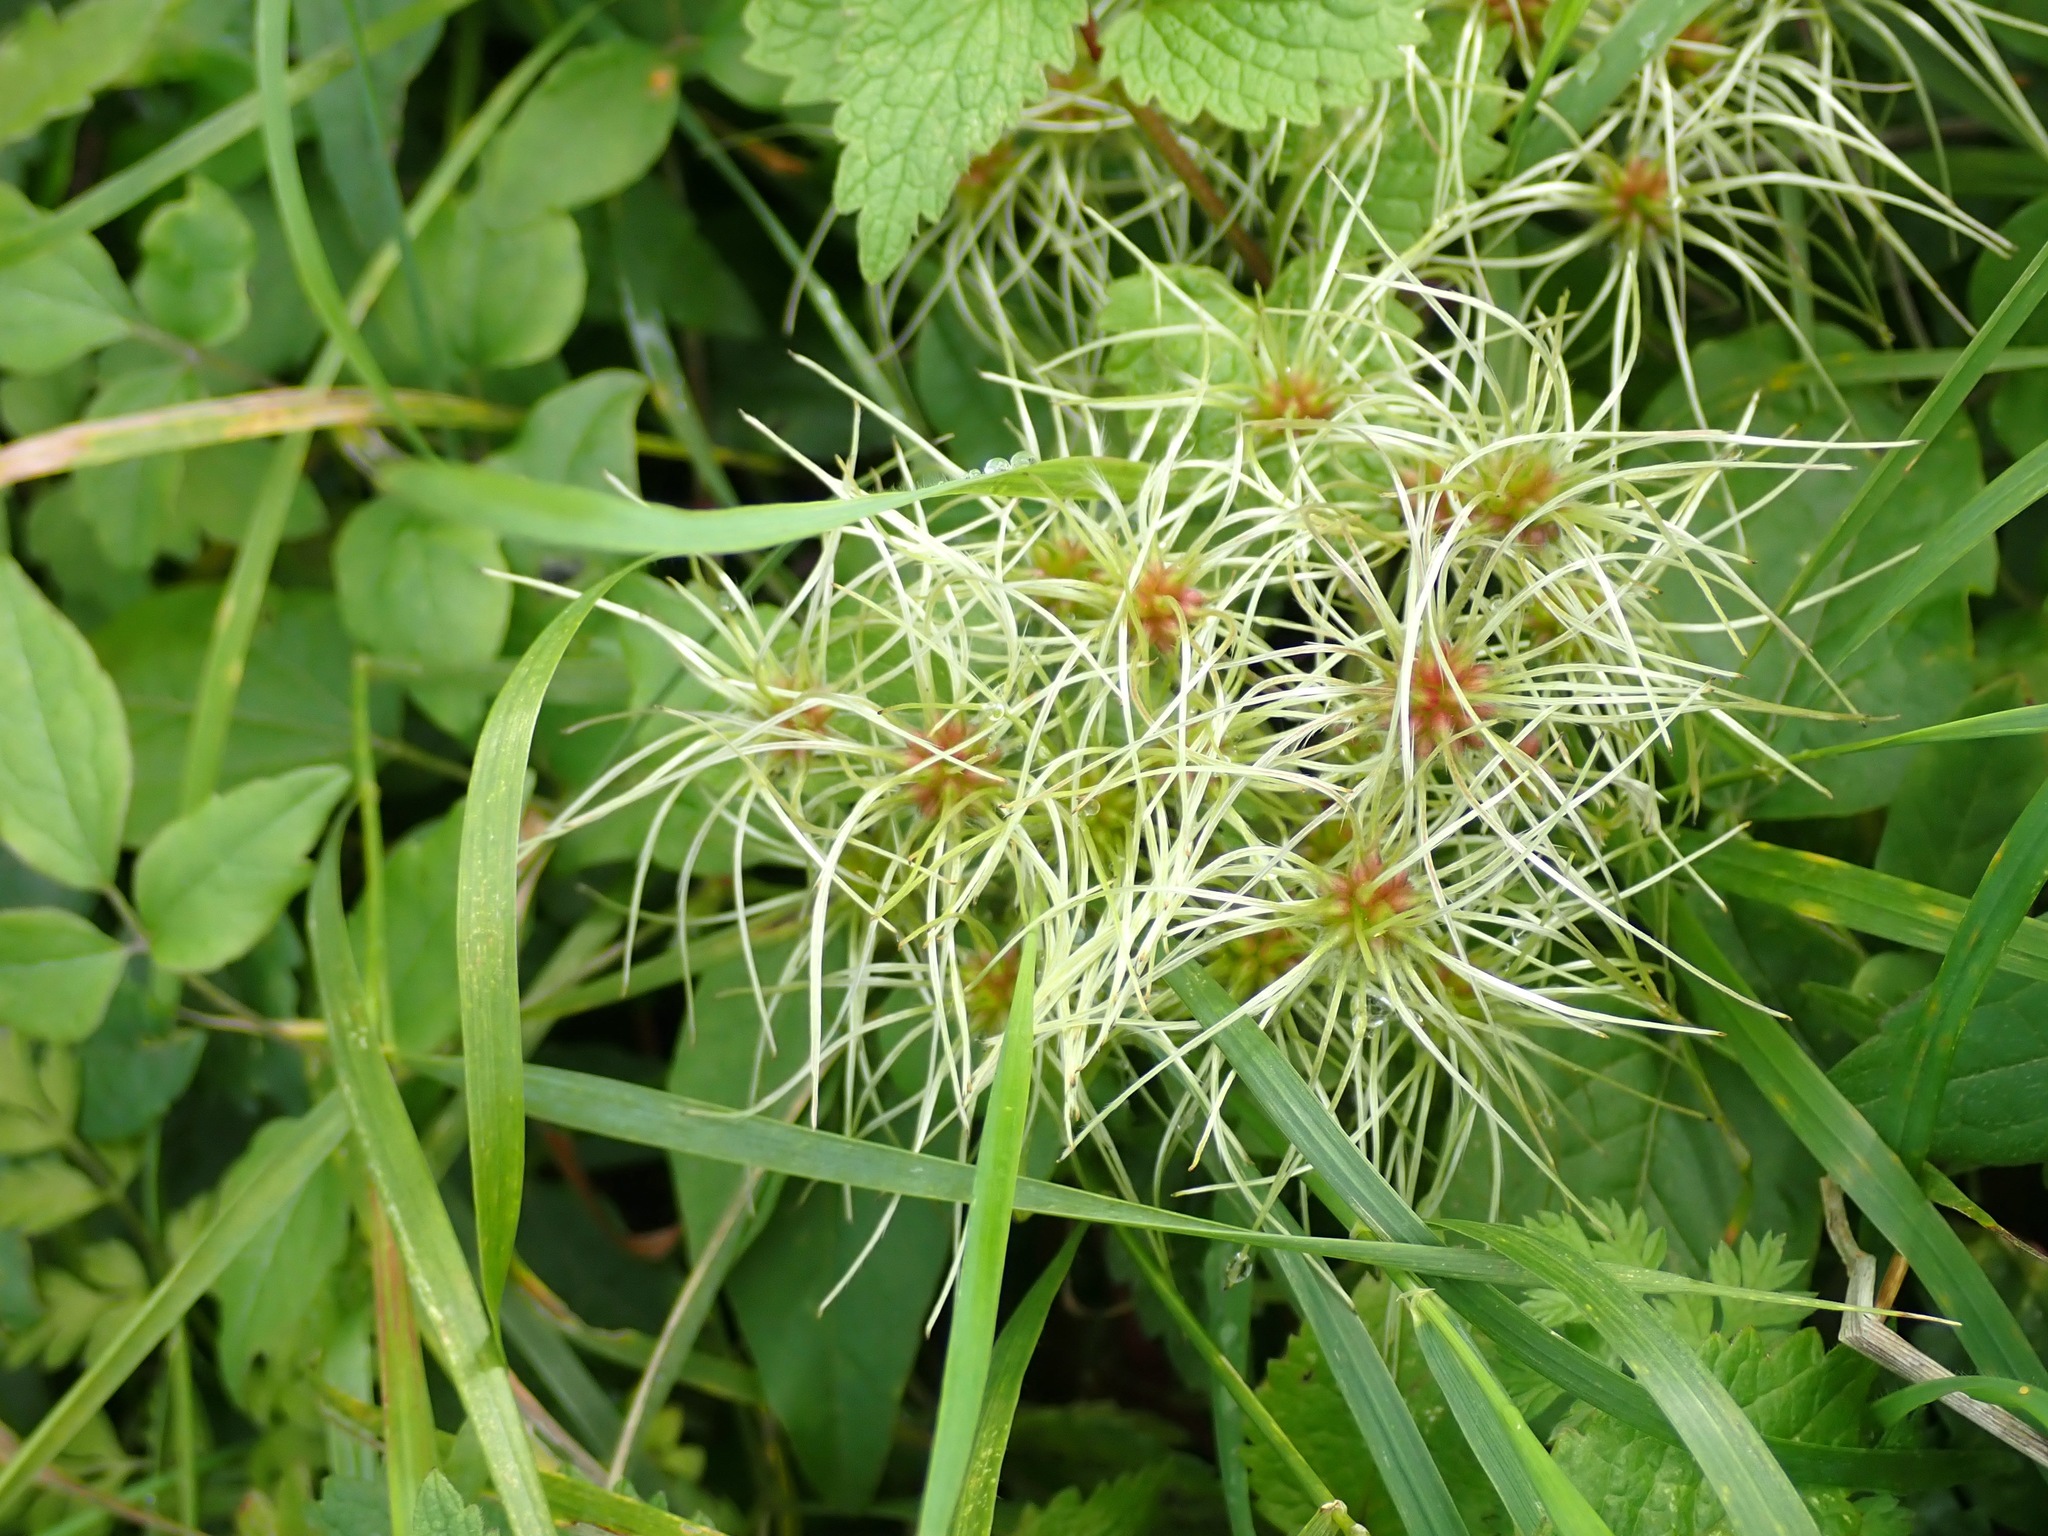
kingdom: Plantae
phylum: Tracheophyta
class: Magnoliopsida
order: Ranunculales
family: Ranunculaceae
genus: Clematis
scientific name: Clematis vitalba
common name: Evergreen clematis
